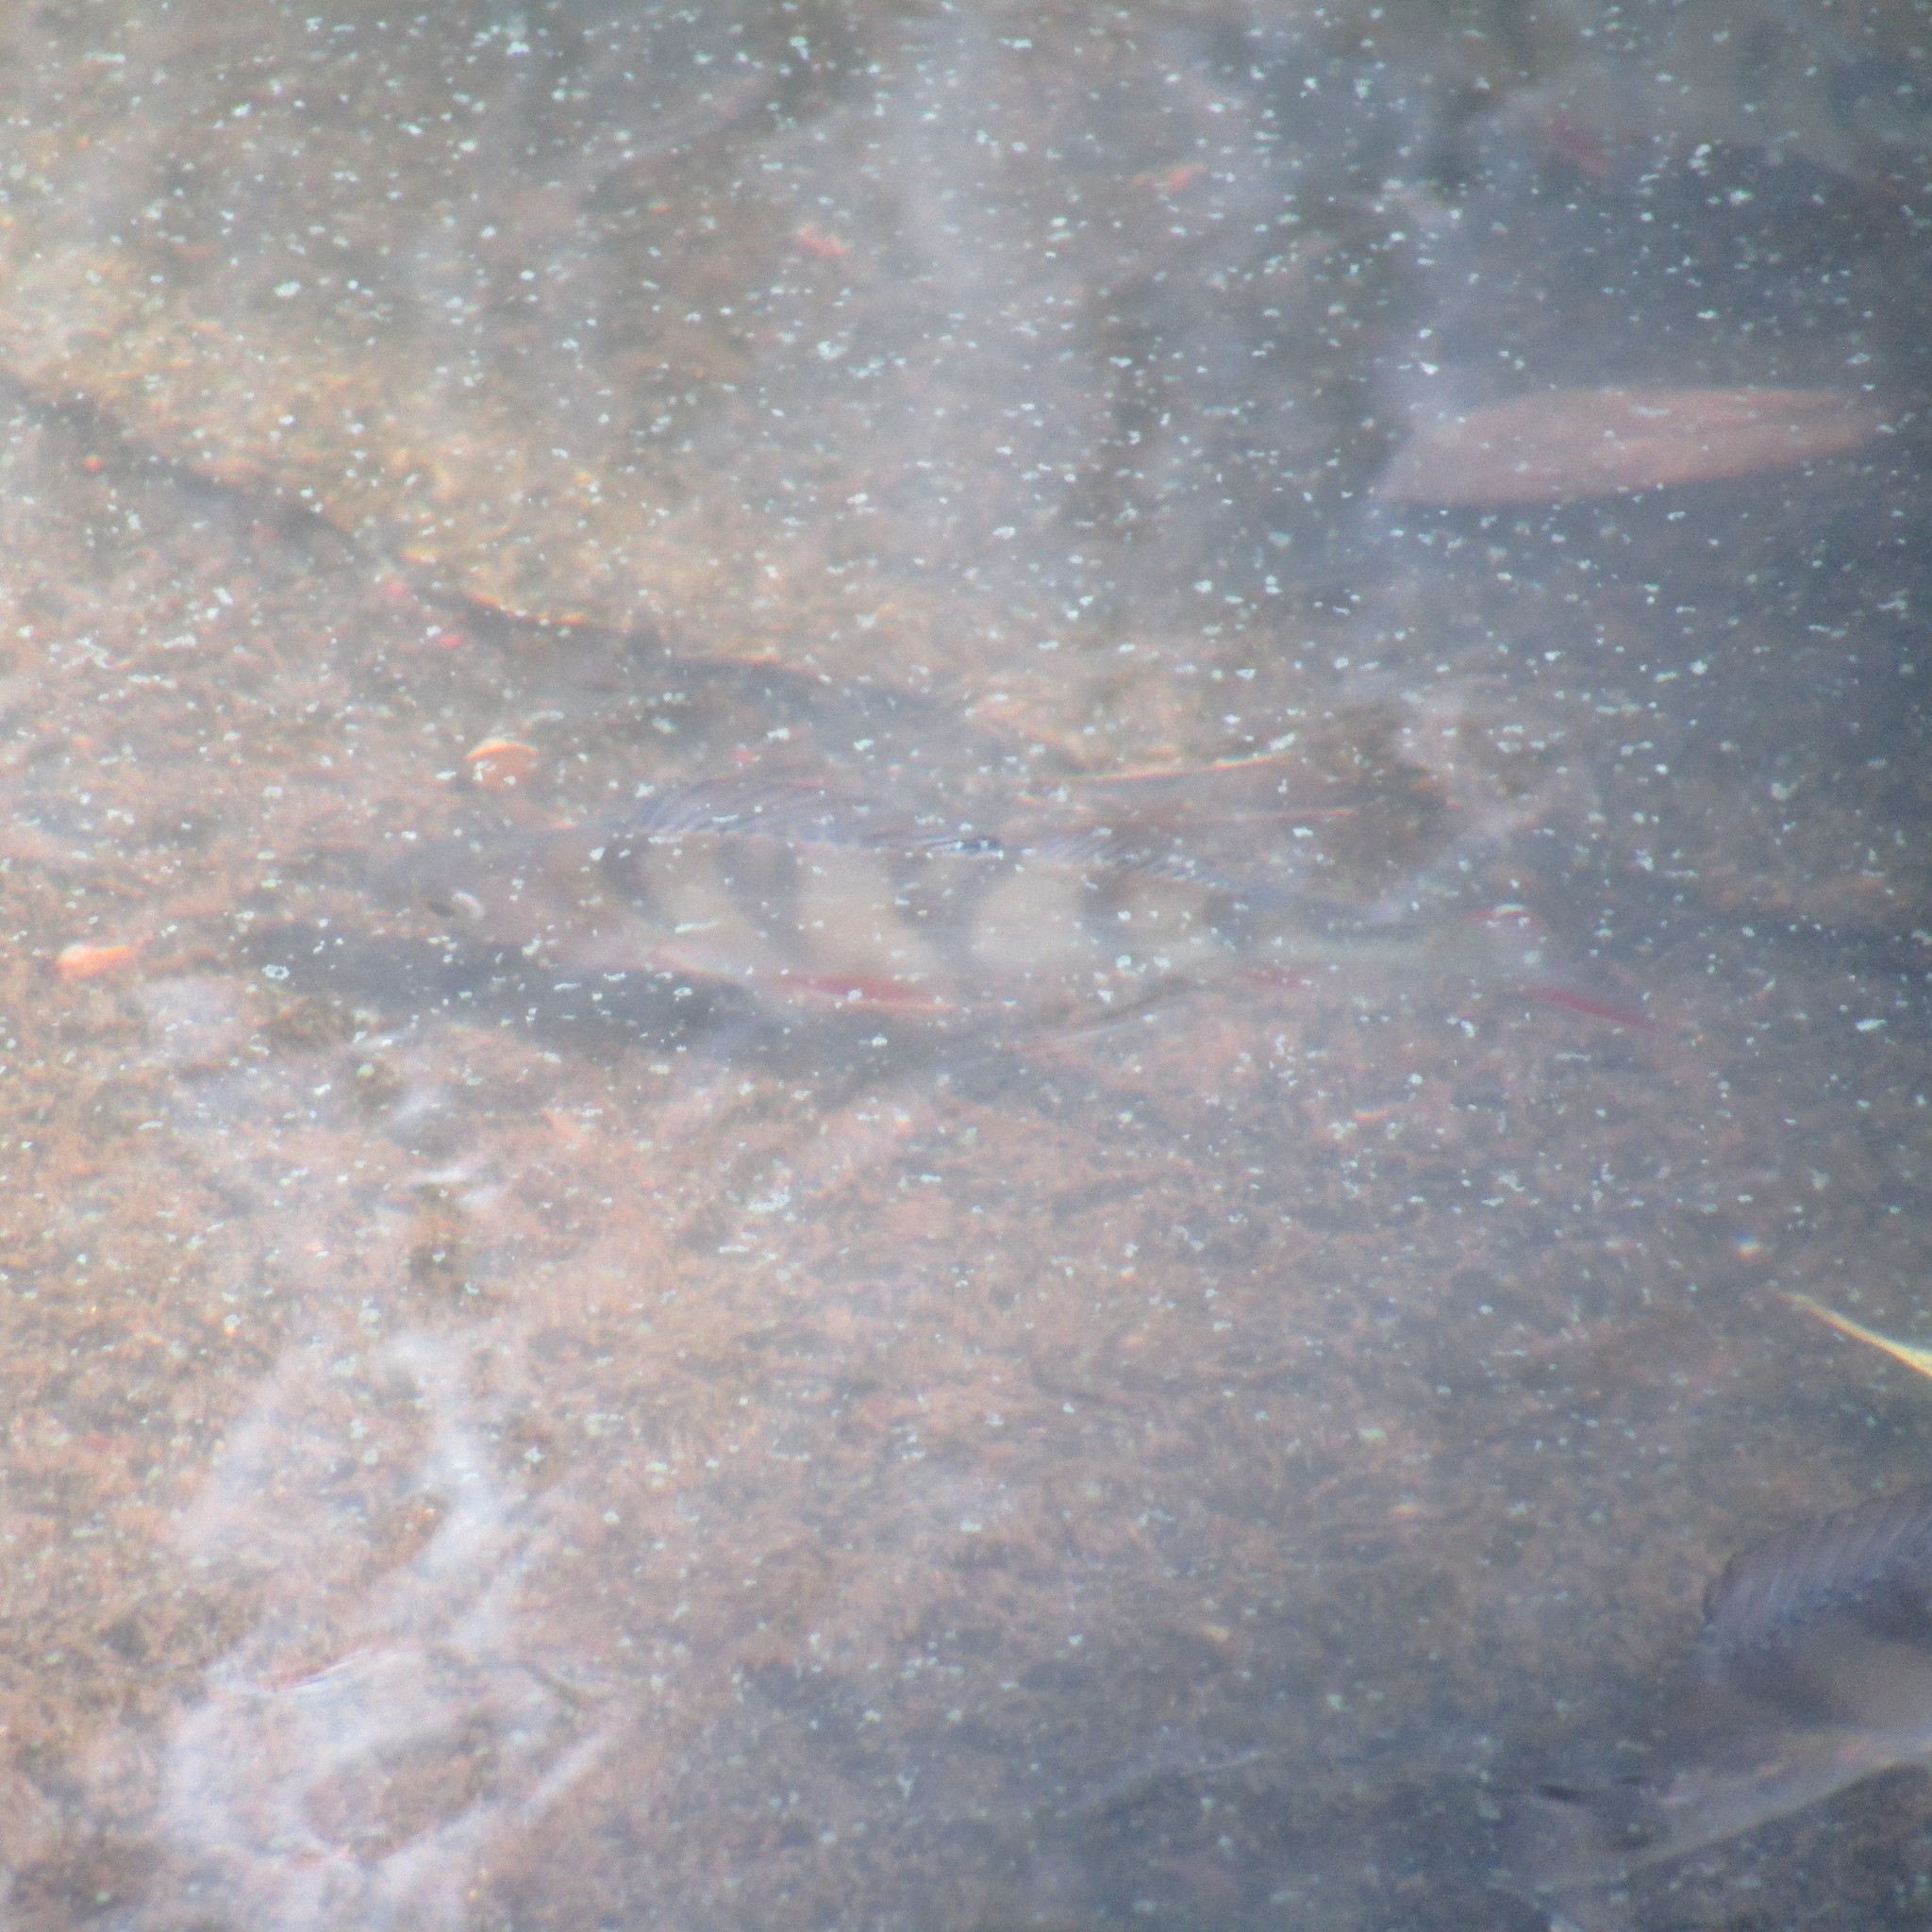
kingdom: Animalia
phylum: Chordata
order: Perciformes
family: Percidae
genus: Perca
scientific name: Perca fluviatilis
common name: Perch
